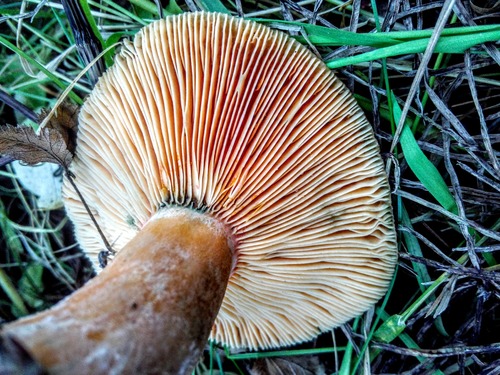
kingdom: Fungi
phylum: Basidiomycota
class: Agaricomycetes
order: Russulales
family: Russulaceae
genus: Lactarius
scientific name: Lactarius deterrimus
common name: False saffron milkcap
